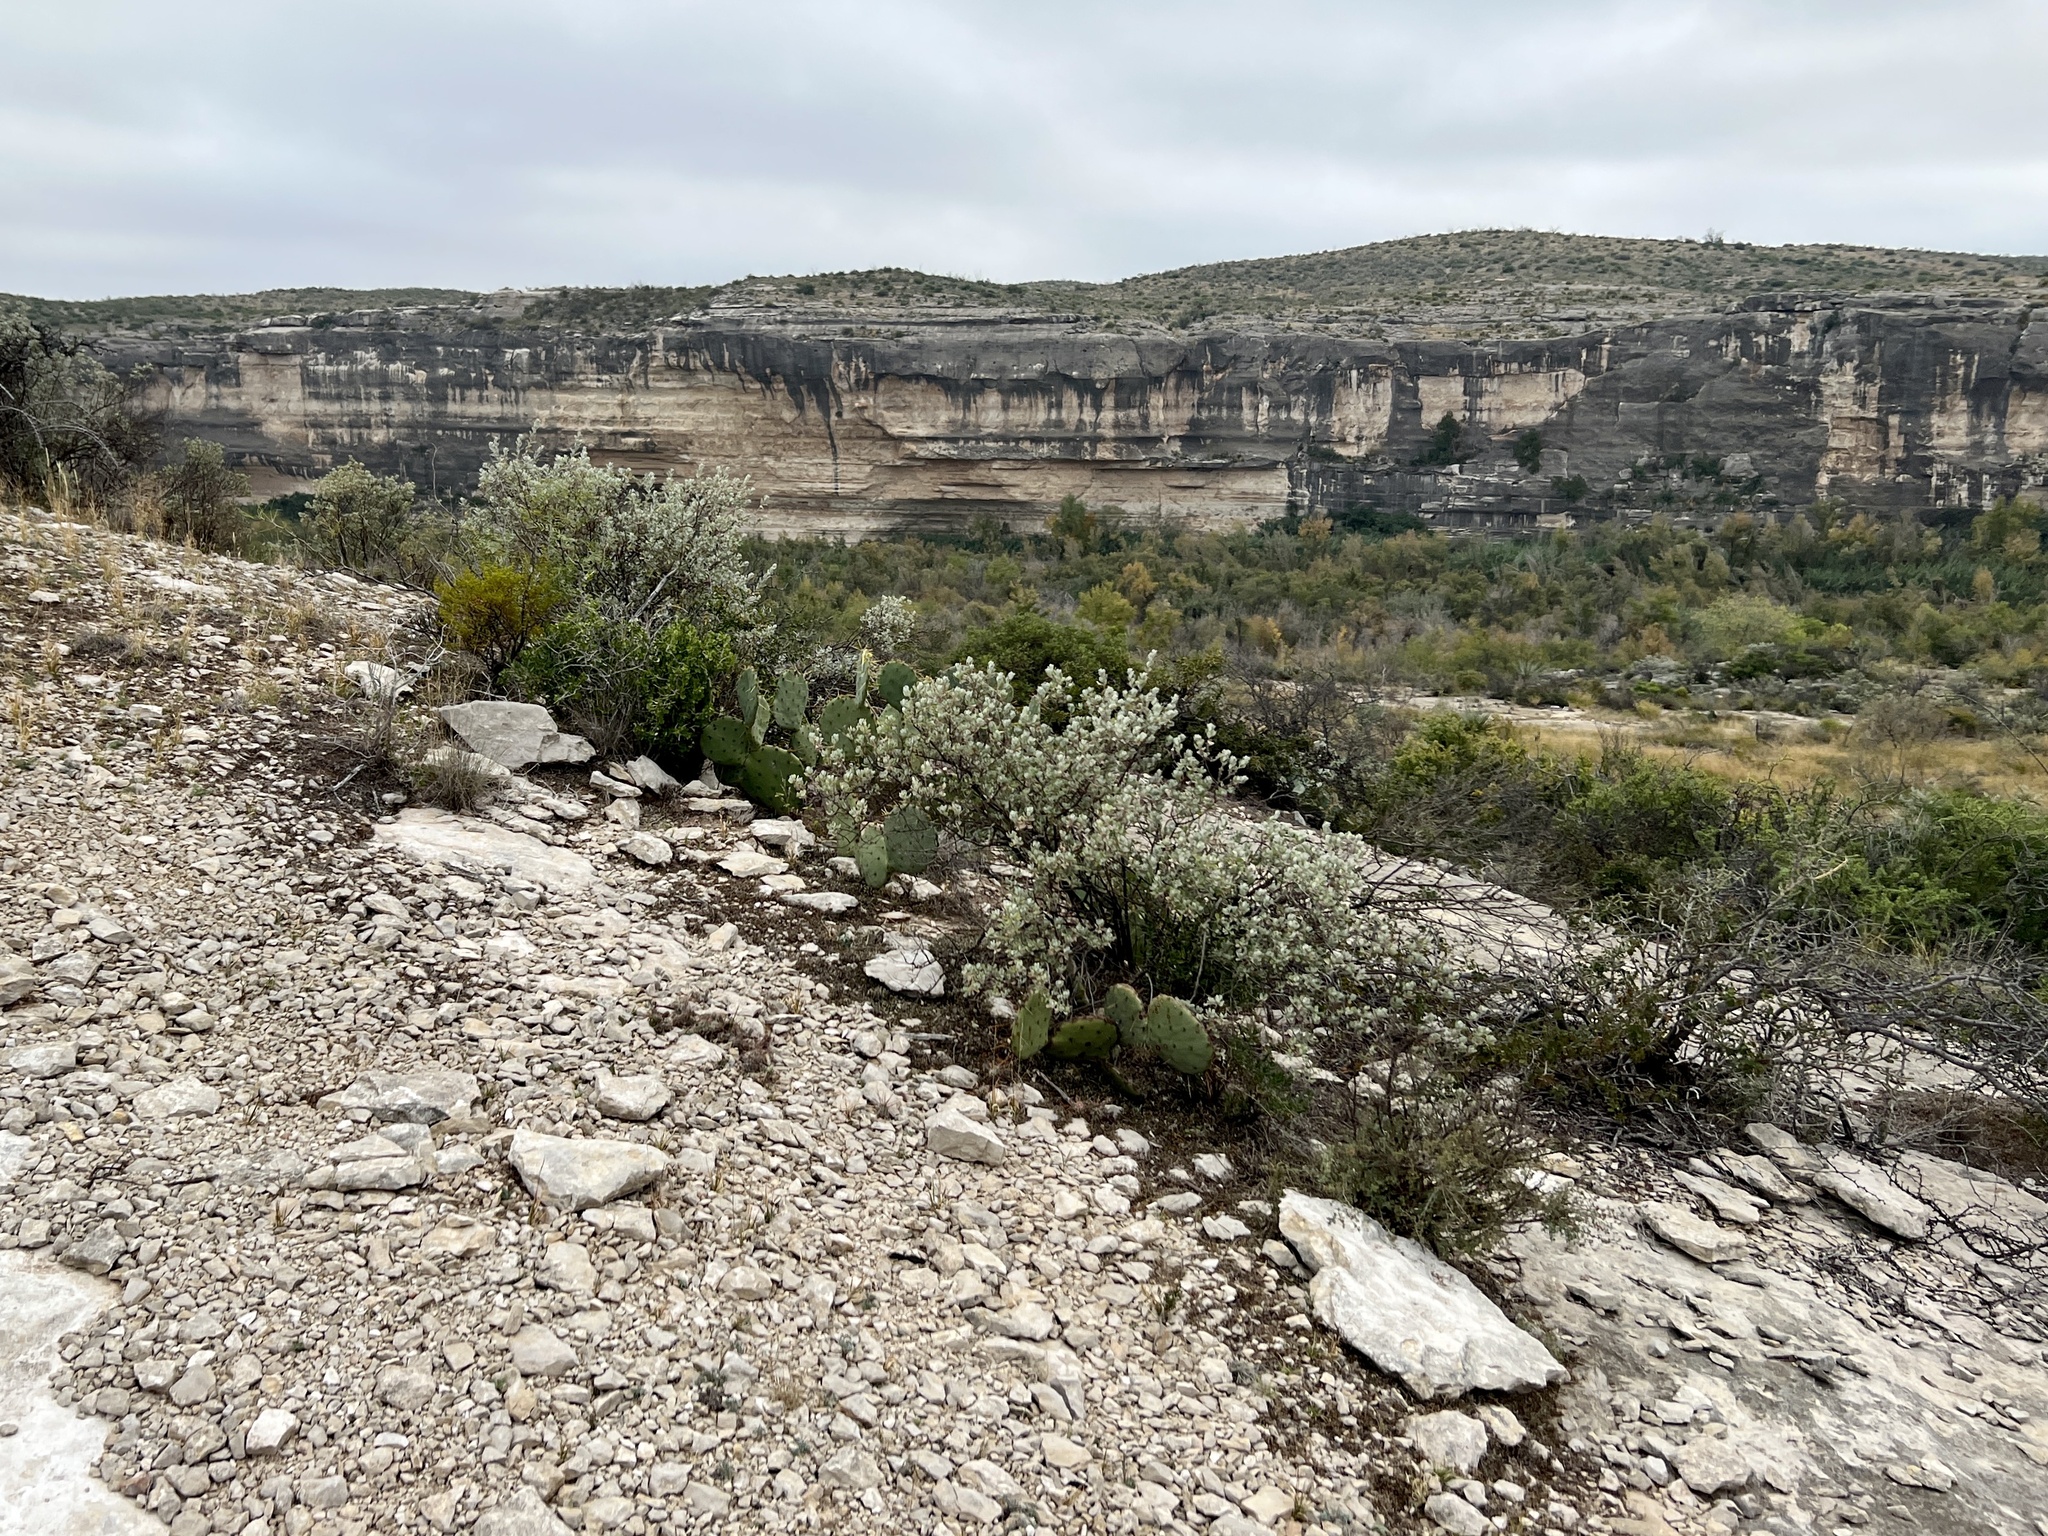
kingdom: Plantae
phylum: Tracheophyta
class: Magnoliopsida
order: Lamiales
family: Scrophulariaceae
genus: Leucophyllum
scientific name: Leucophyllum frutescens
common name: Texas silverleaf
